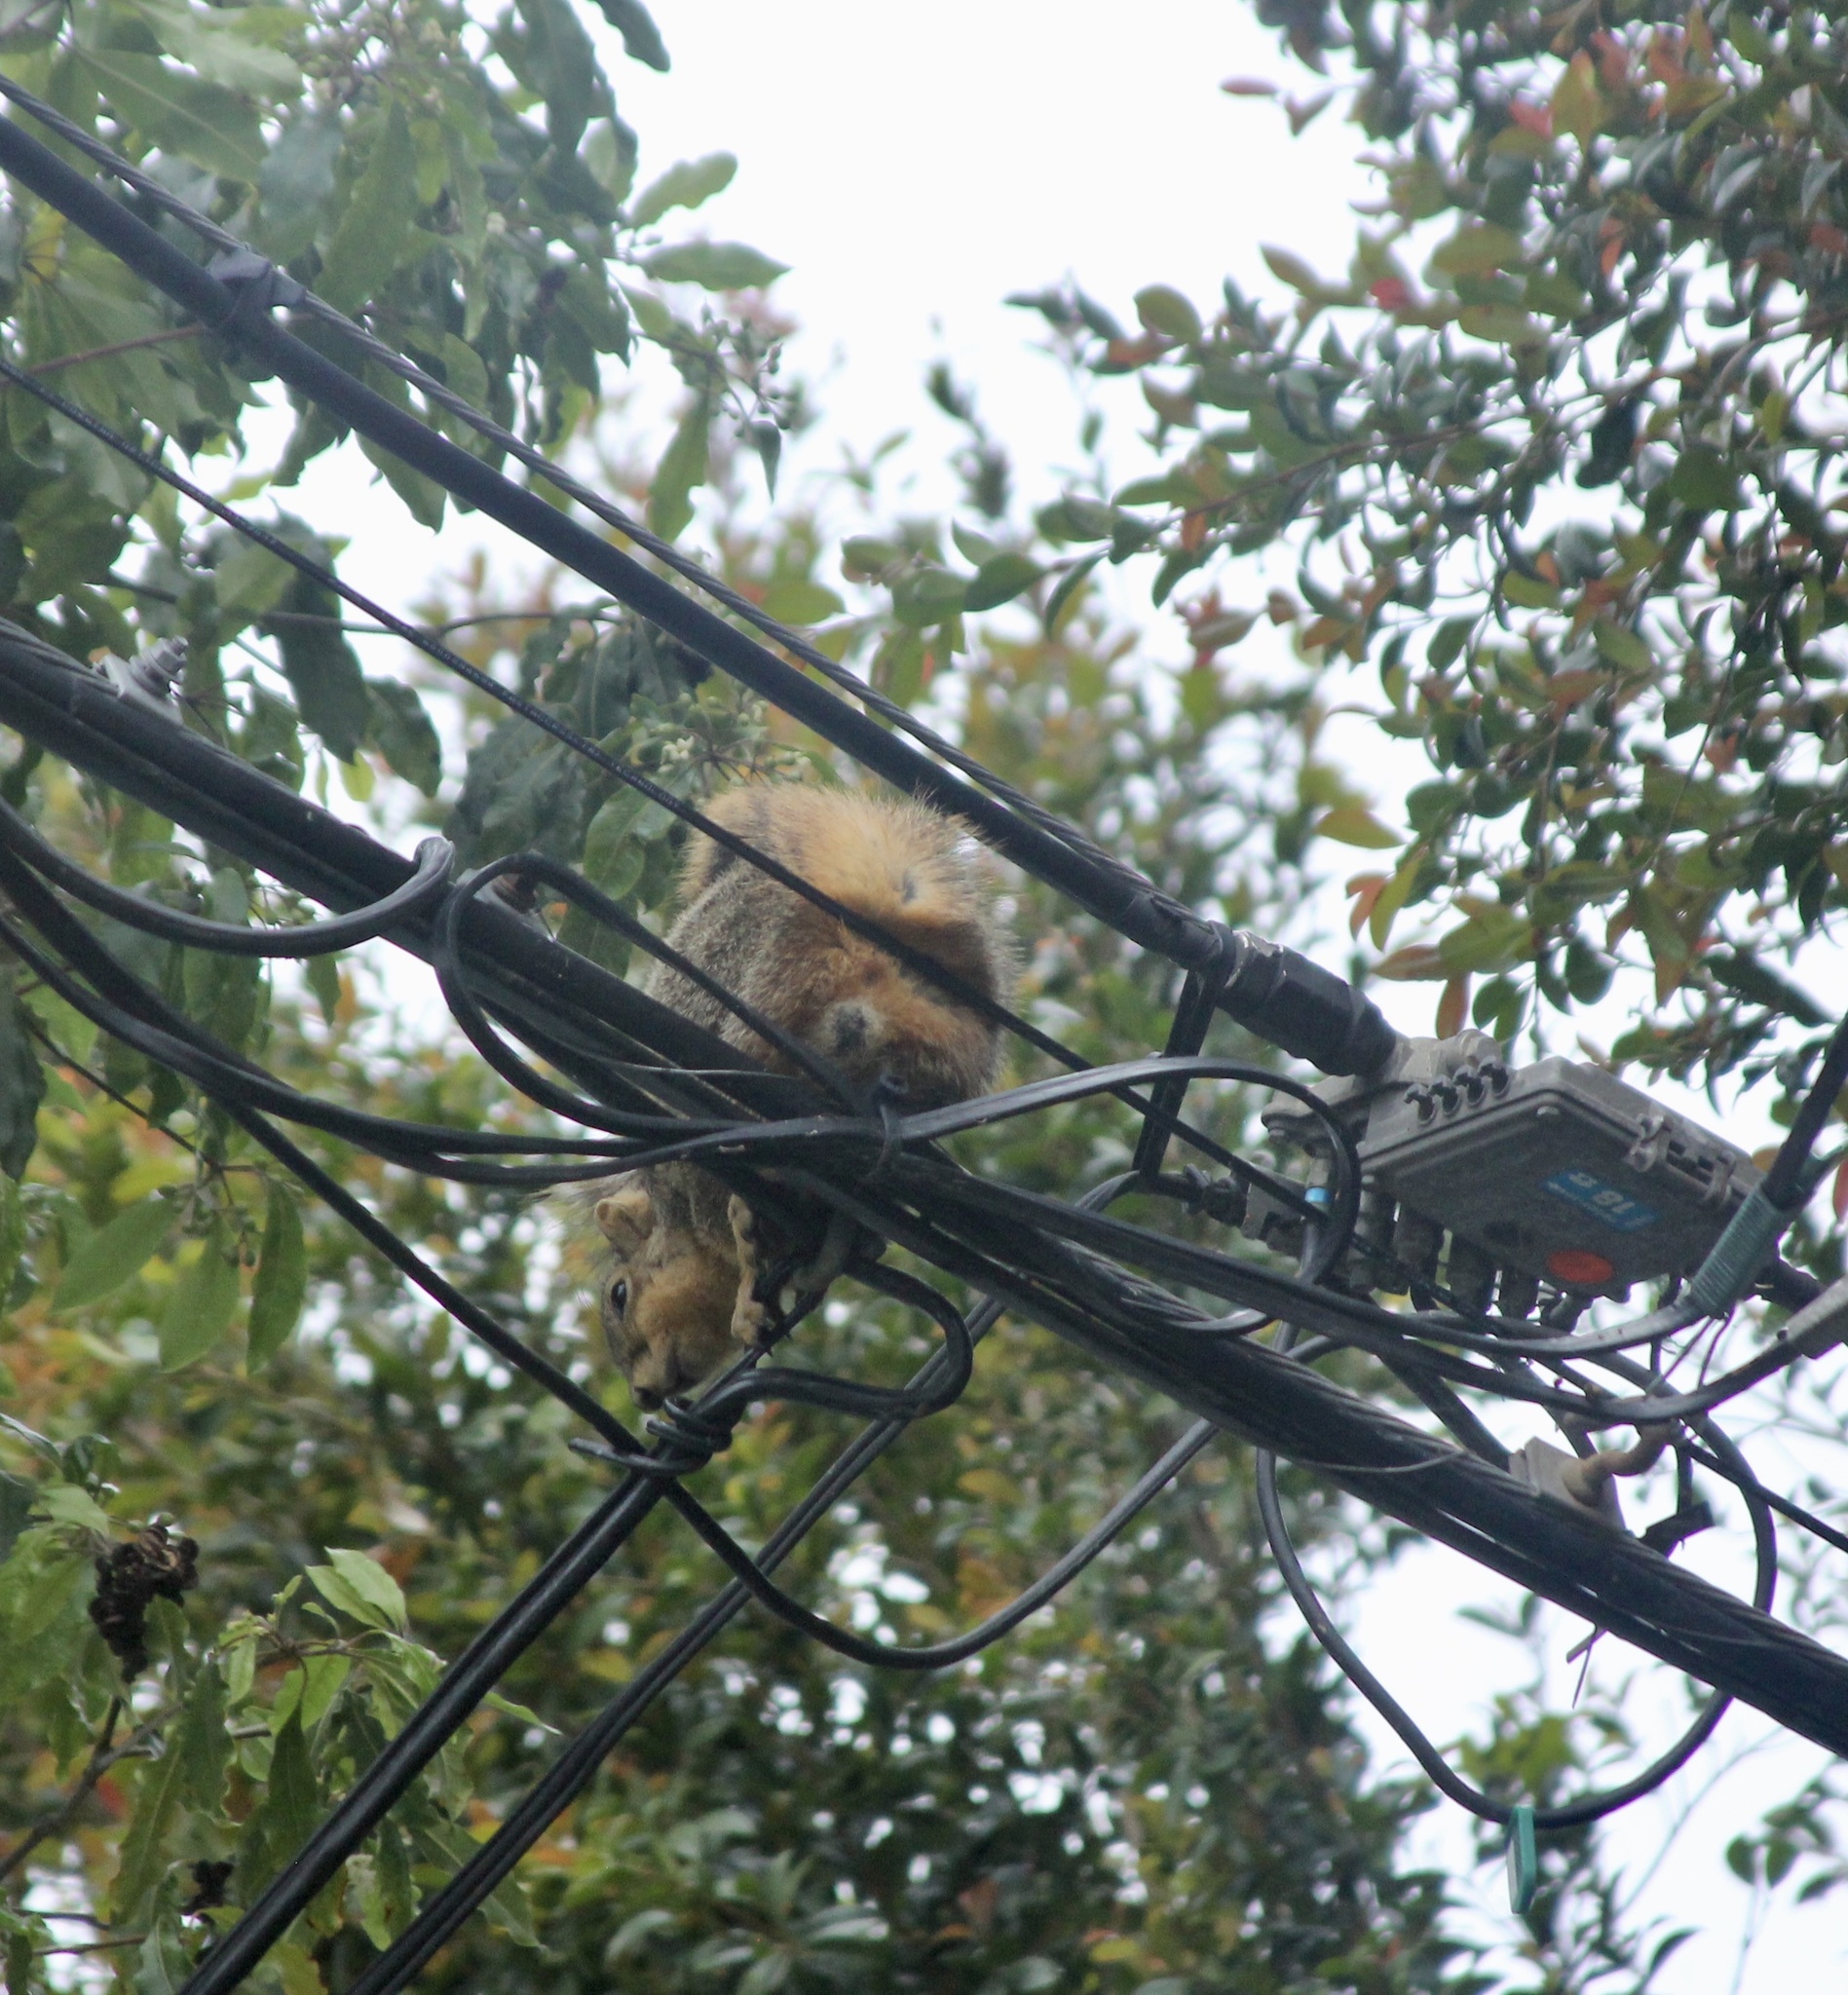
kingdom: Animalia
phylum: Chordata
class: Mammalia
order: Rodentia
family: Sciuridae
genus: Sciurus
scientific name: Sciurus niger
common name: Fox squirrel
